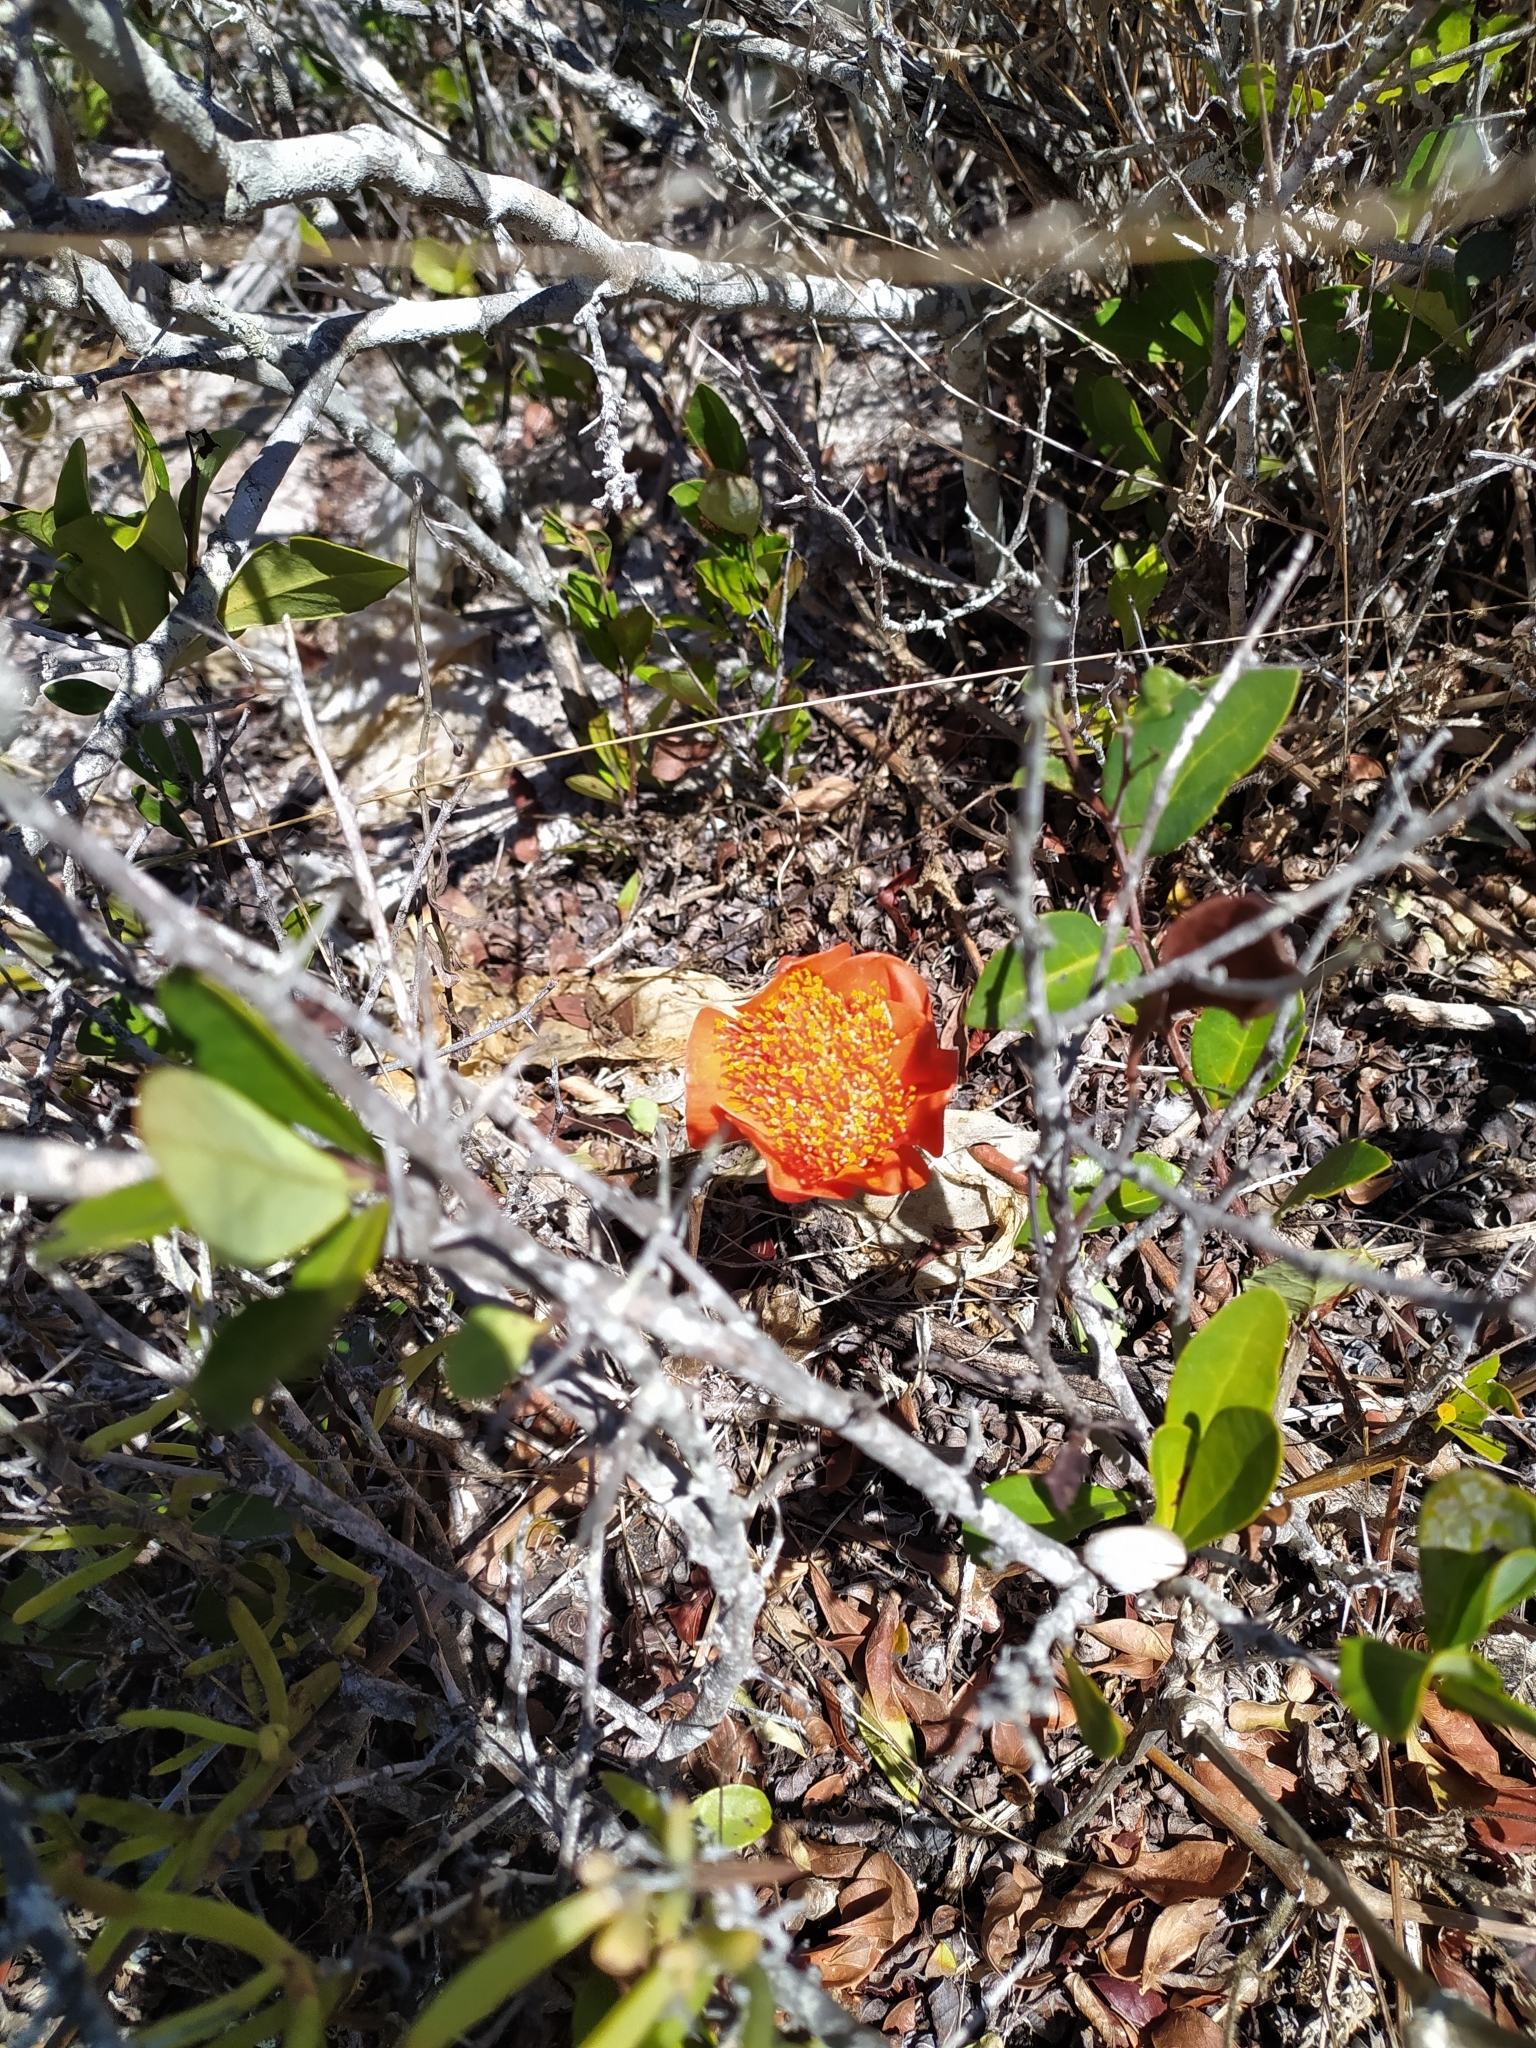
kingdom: Plantae
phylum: Tracheophyta
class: Liliopsida
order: Asparagales
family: Amaryllidaceae
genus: Haemanthus
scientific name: Haemanthus coccineus
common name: Cape-tulip
